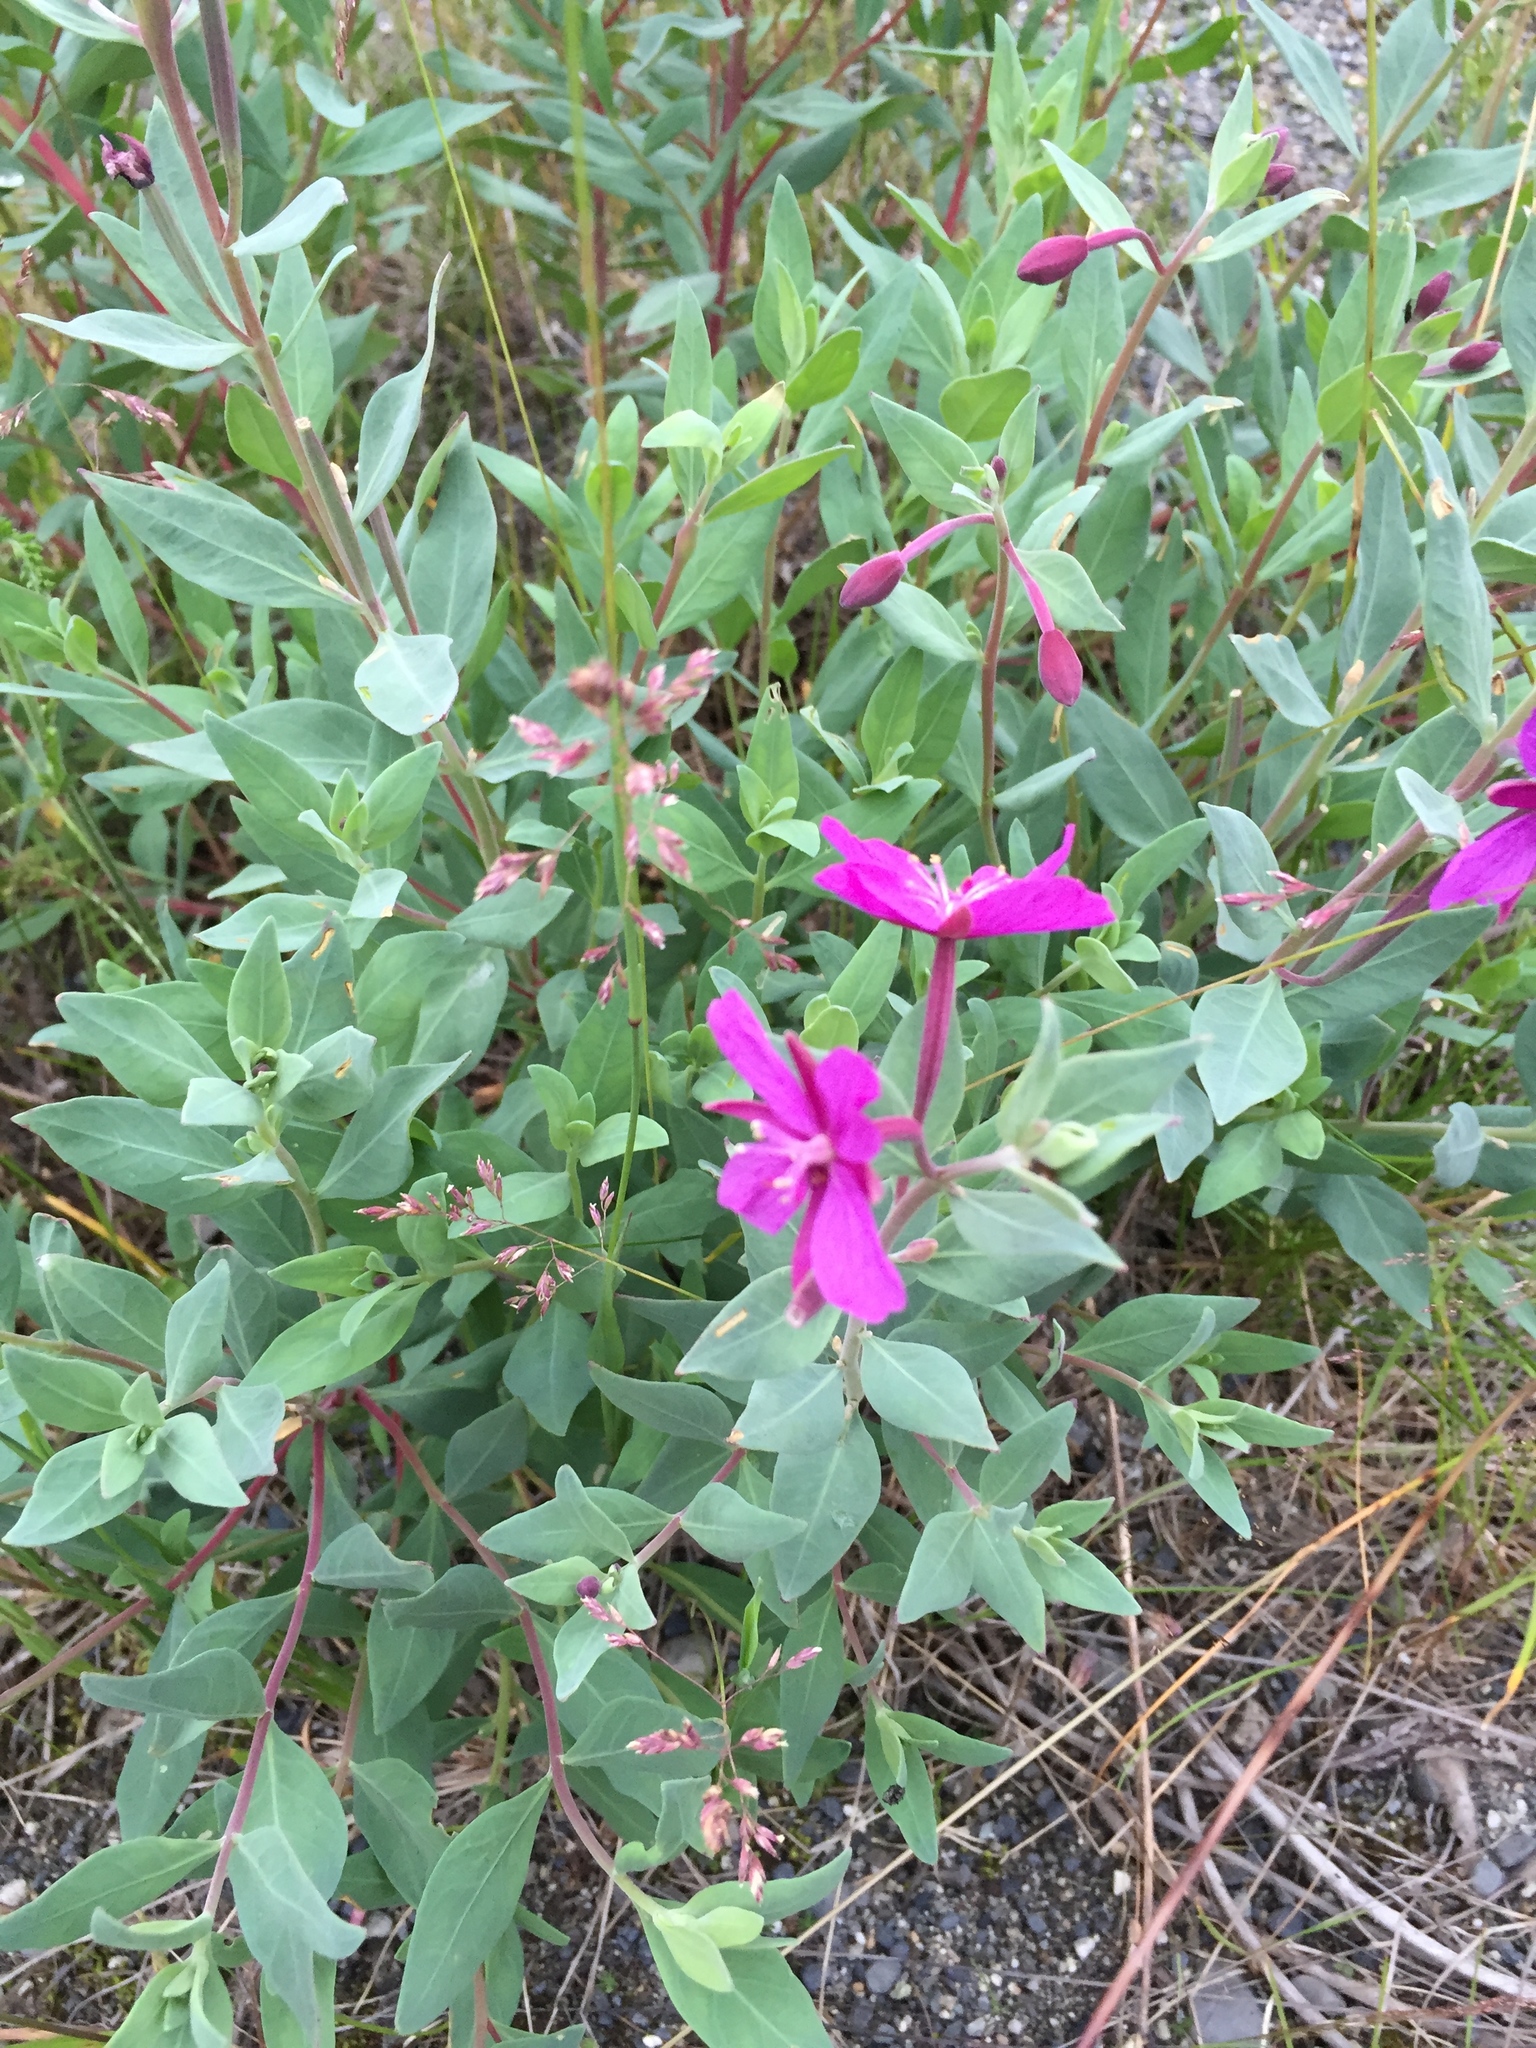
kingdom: Plantae
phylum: Tracheophyta
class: Magnoliopsida
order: Myrtales
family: Onagraceae
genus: Chamaenerion
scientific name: Chamaenerion latifolium
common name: Dwarf fireweed
